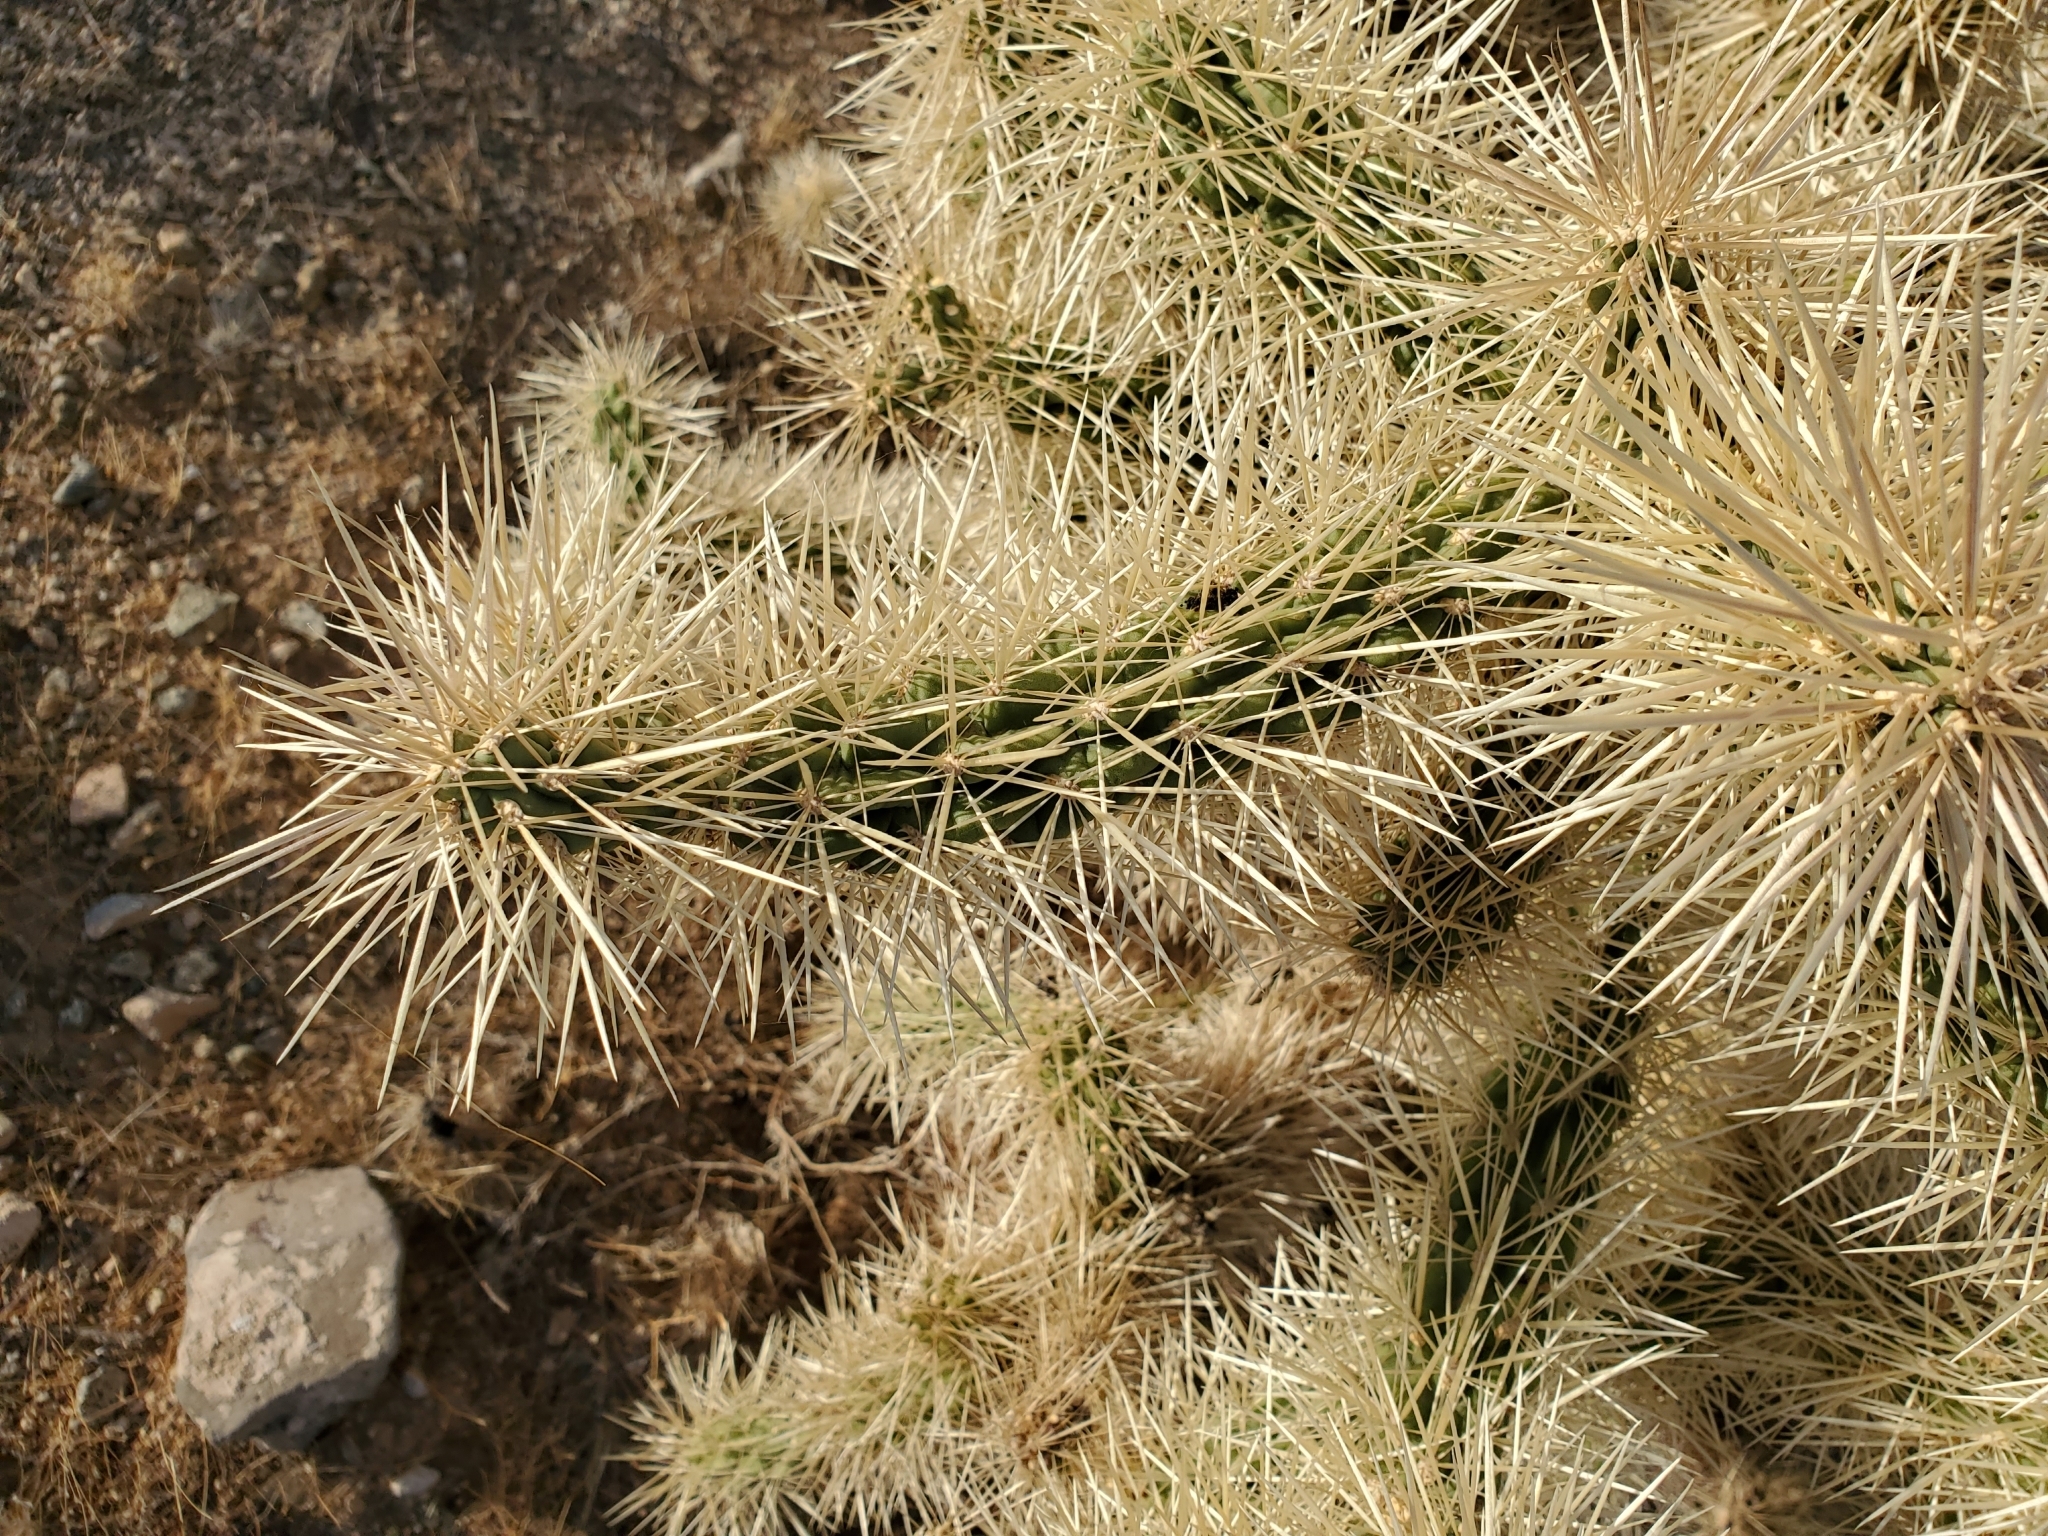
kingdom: Plantae
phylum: Tracheophyta
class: Magnoliopsida
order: Caryophyllales
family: Cactaceae
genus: Cylindropuntia
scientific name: Cylindropuntia fulgida
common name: Jumping cholla
